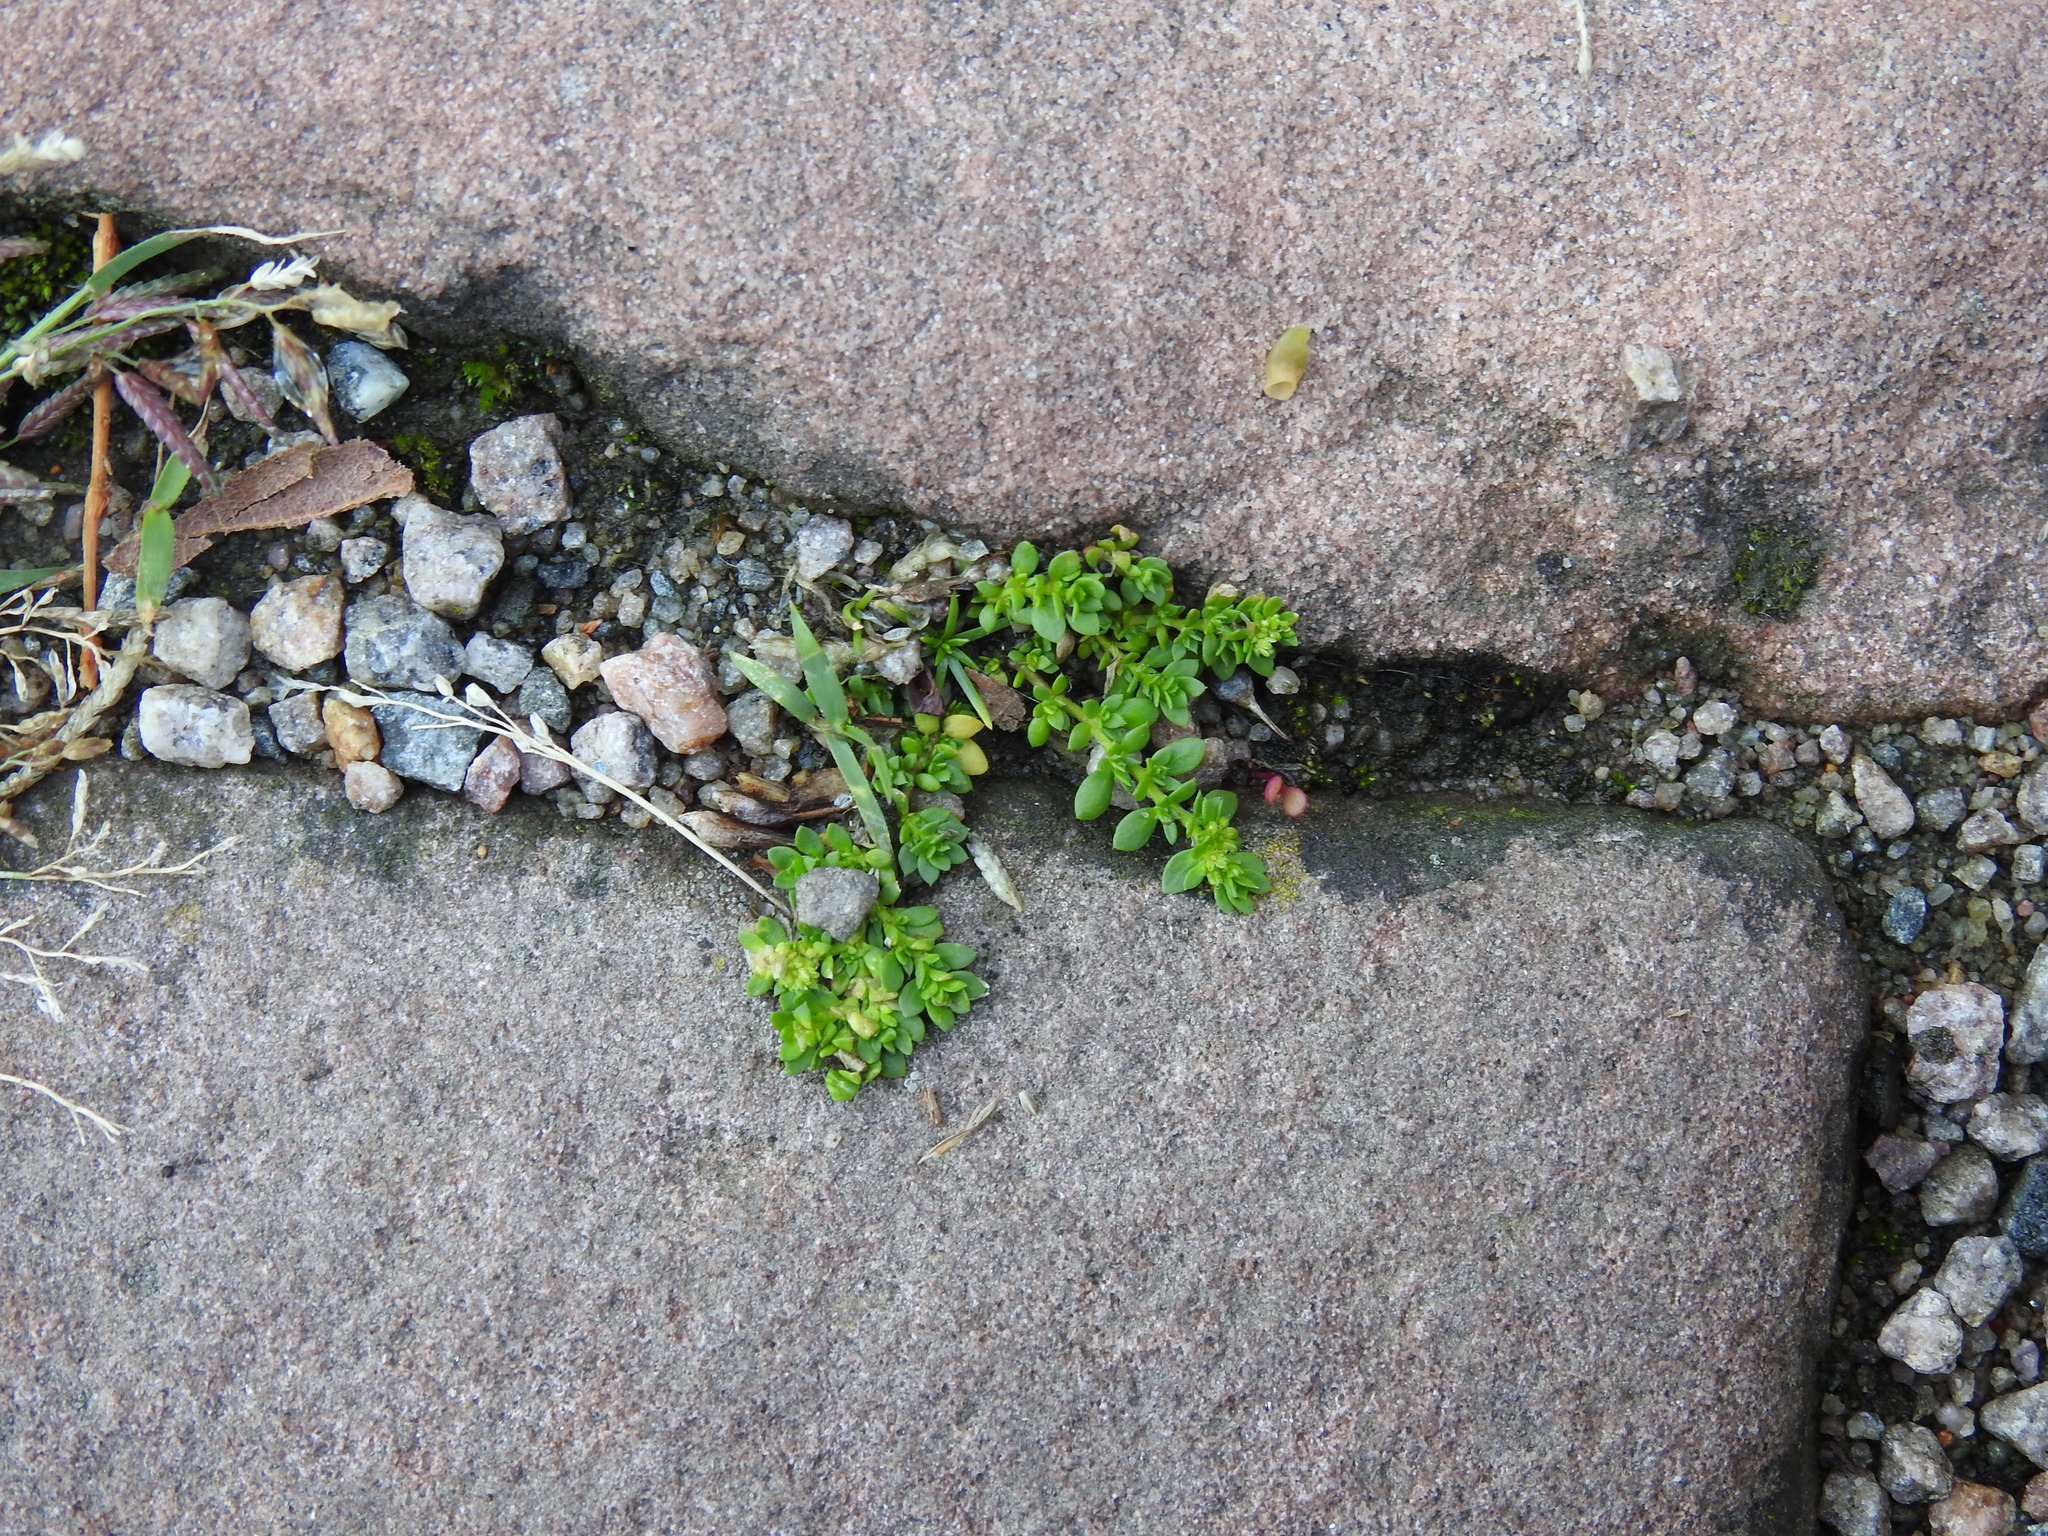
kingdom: Plantae
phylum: Tracheophyta
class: Magnoliopsida
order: Caryophyllales
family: Caryophyllaceae
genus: Herniaria
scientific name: Herniaria glabra
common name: Smooth rupturewort
